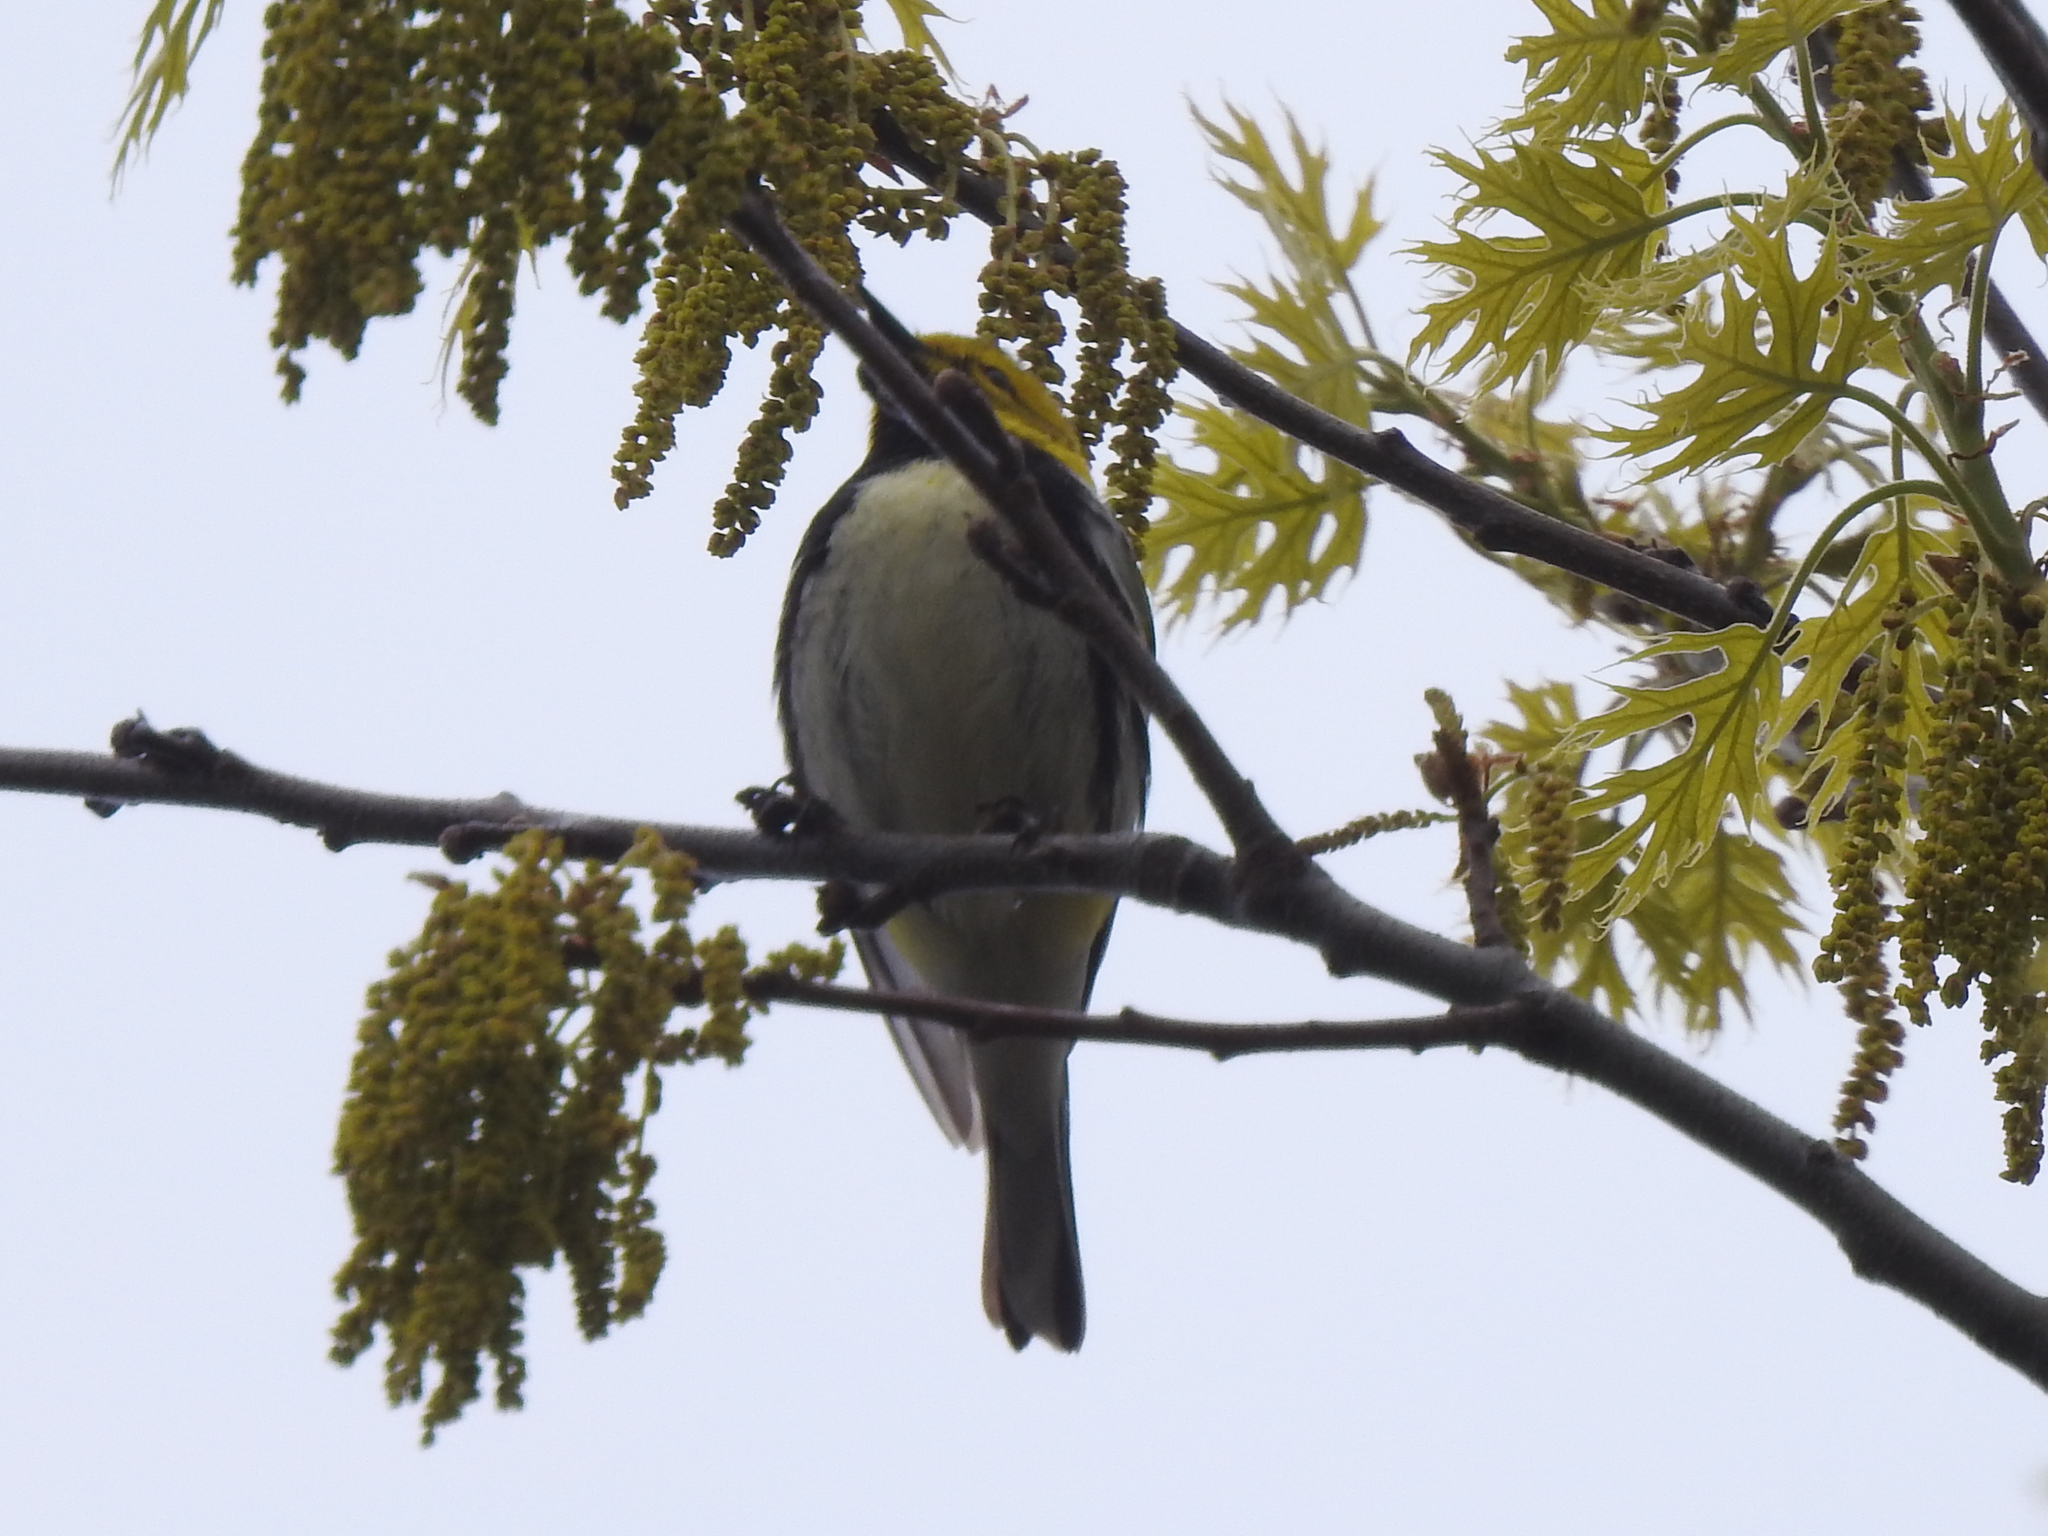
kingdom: Animalia
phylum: Chordata
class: Aves
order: Passeriformes
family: Parulidae
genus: Setophaga
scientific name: Setophaga virens
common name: Black-throated green warbler
